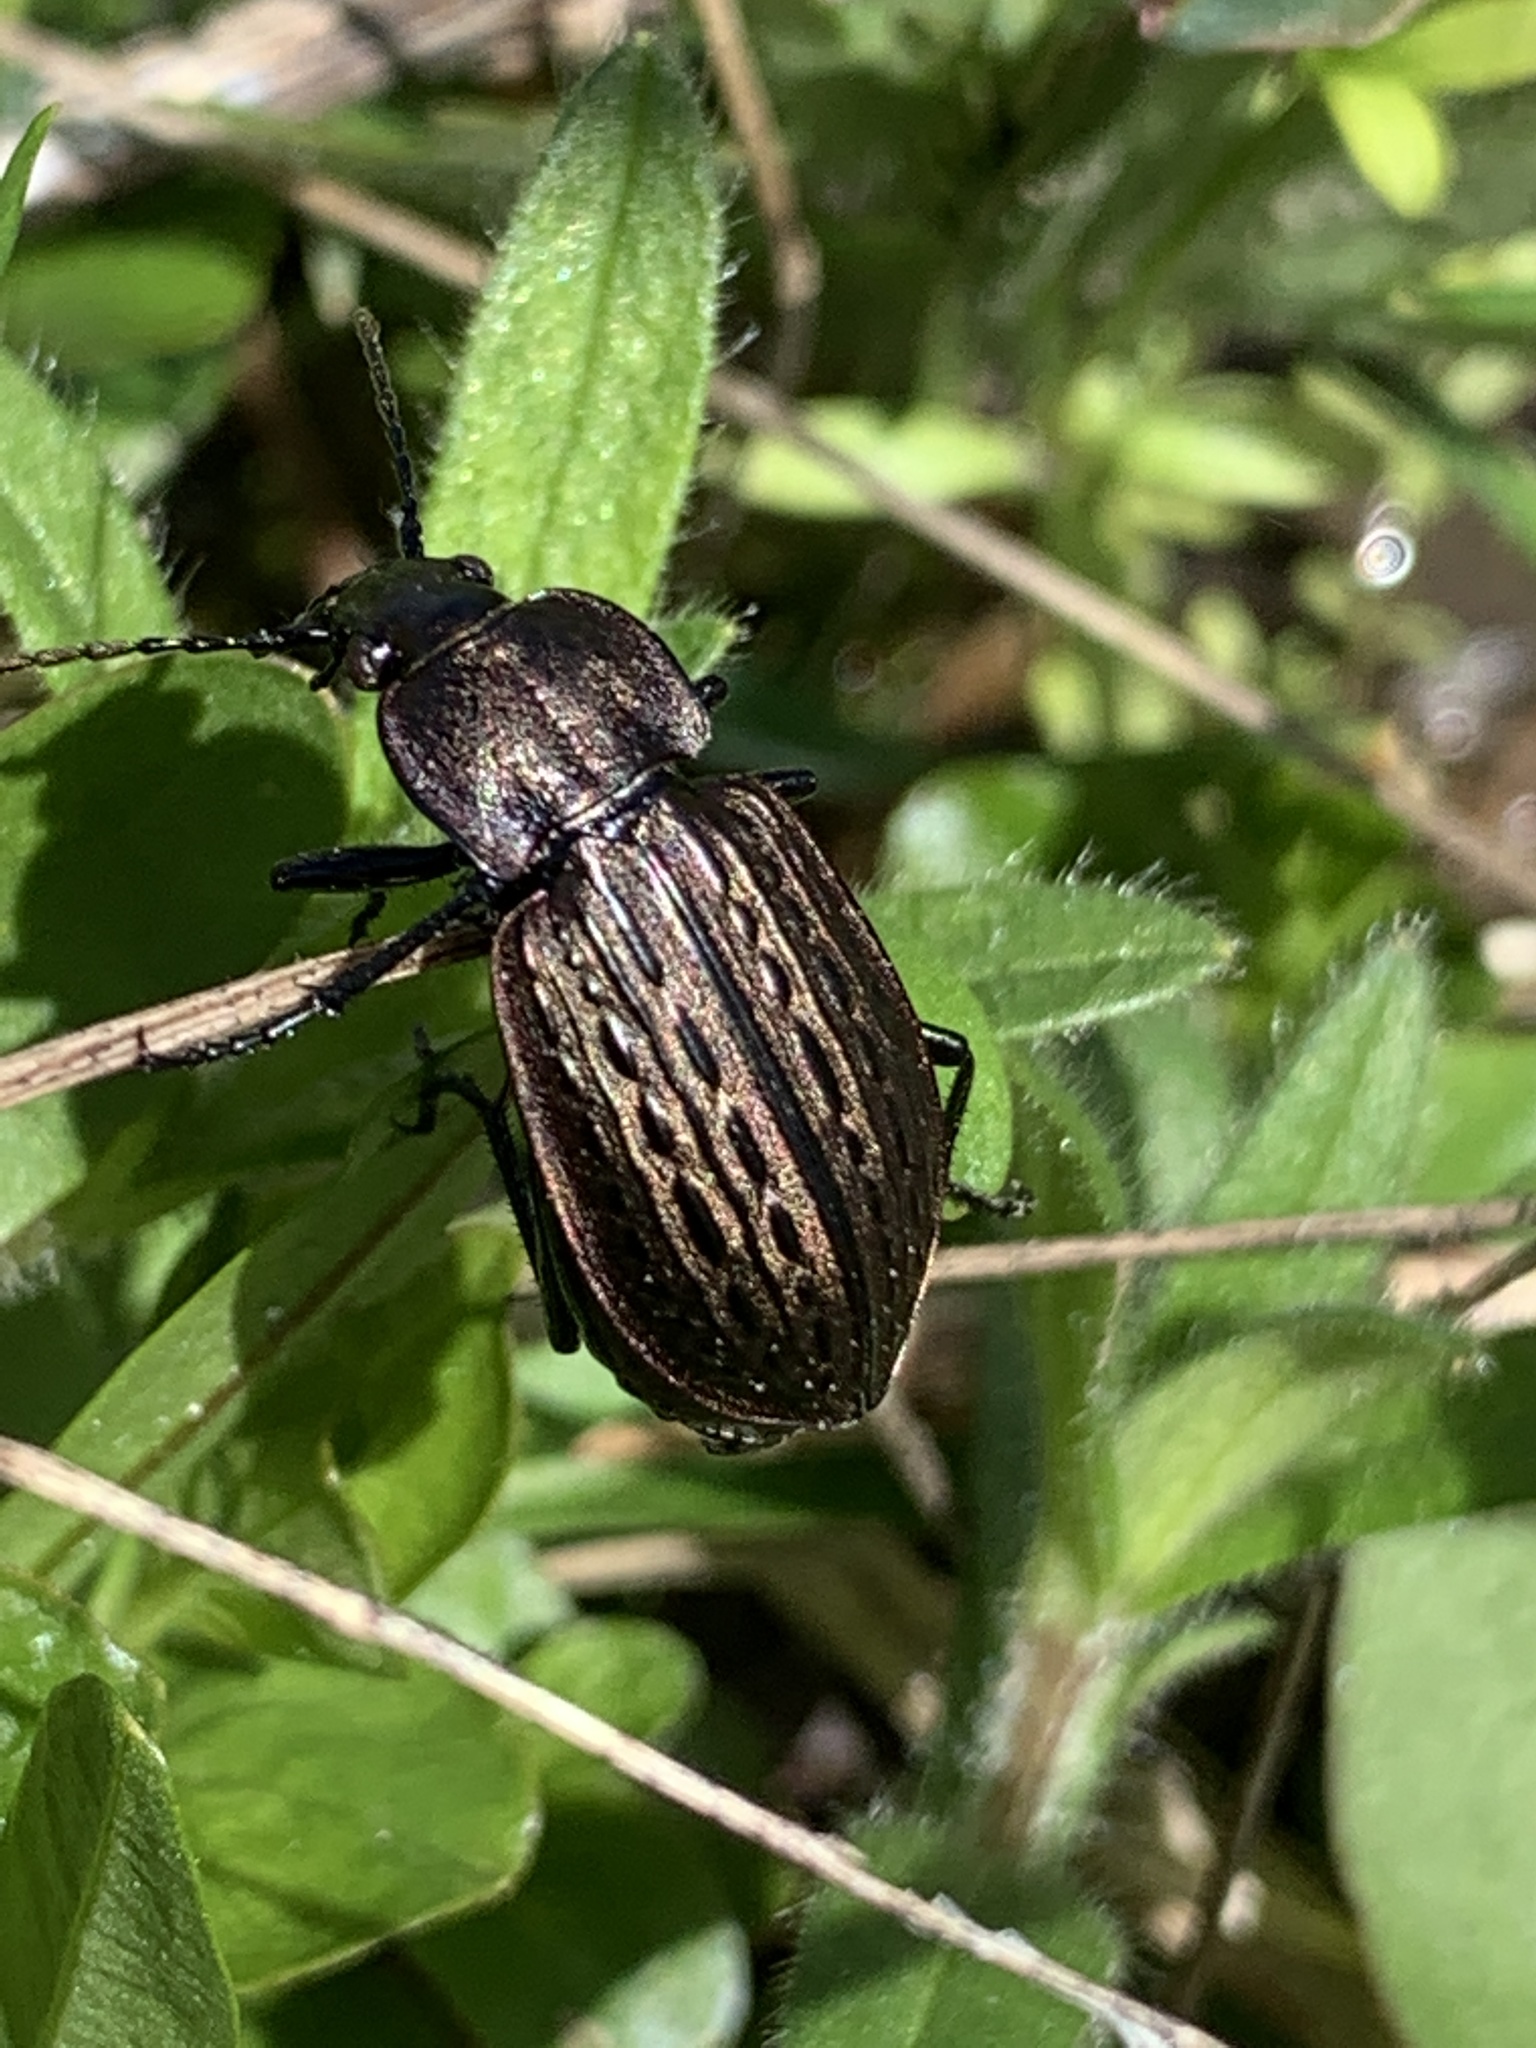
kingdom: Animalia
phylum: Arthropoda
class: Insecta
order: Coleoptera
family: Carabidae
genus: Carabus
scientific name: Carabus maeander
